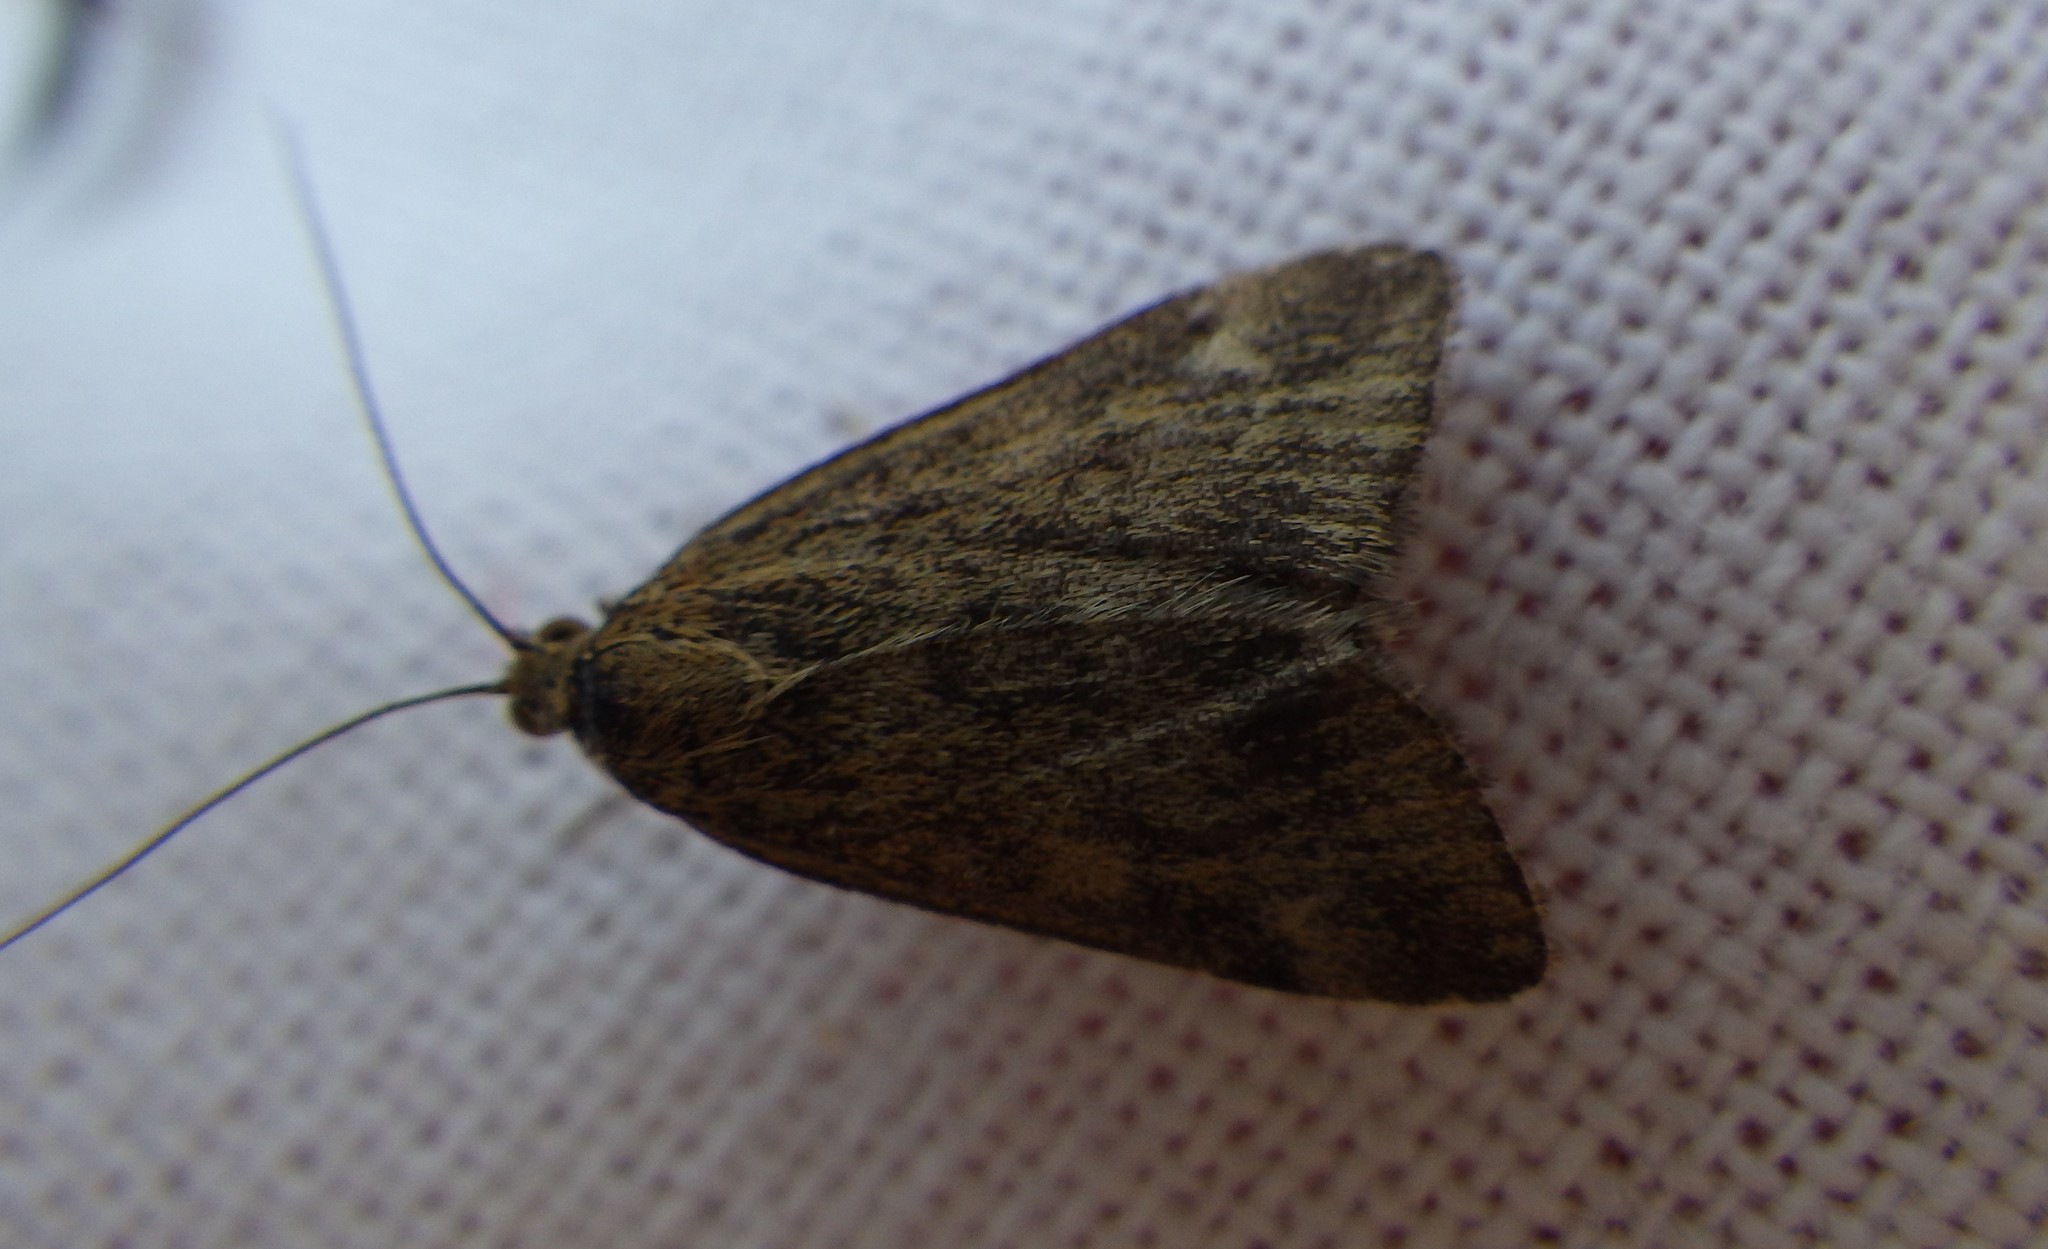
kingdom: Animalia
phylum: Arthropoda
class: Insecta
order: Lepidoptera
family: Crambidae
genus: Pyrausta
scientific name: Pyrausta despicata
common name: Straw-barred pearl
